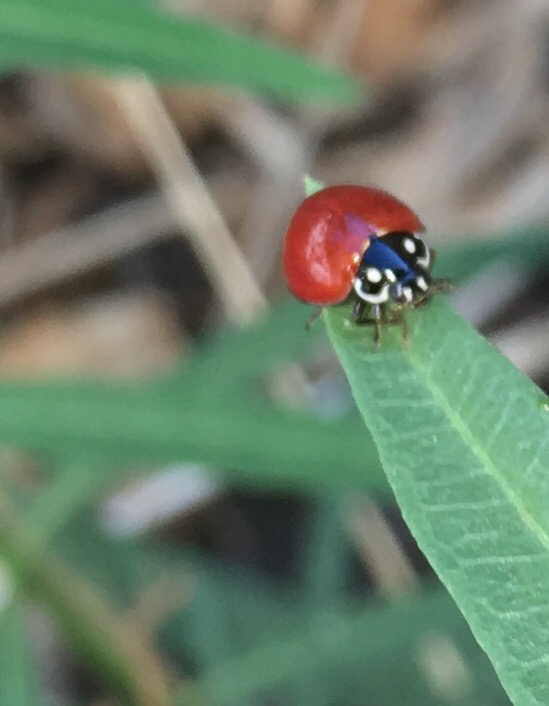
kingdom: Animalia
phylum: Arthropoda
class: Insecta
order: Coleoptera
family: Coccinellidae
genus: Cycloneda
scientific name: Cycloneda sanguinea
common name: Ladybird beetle
